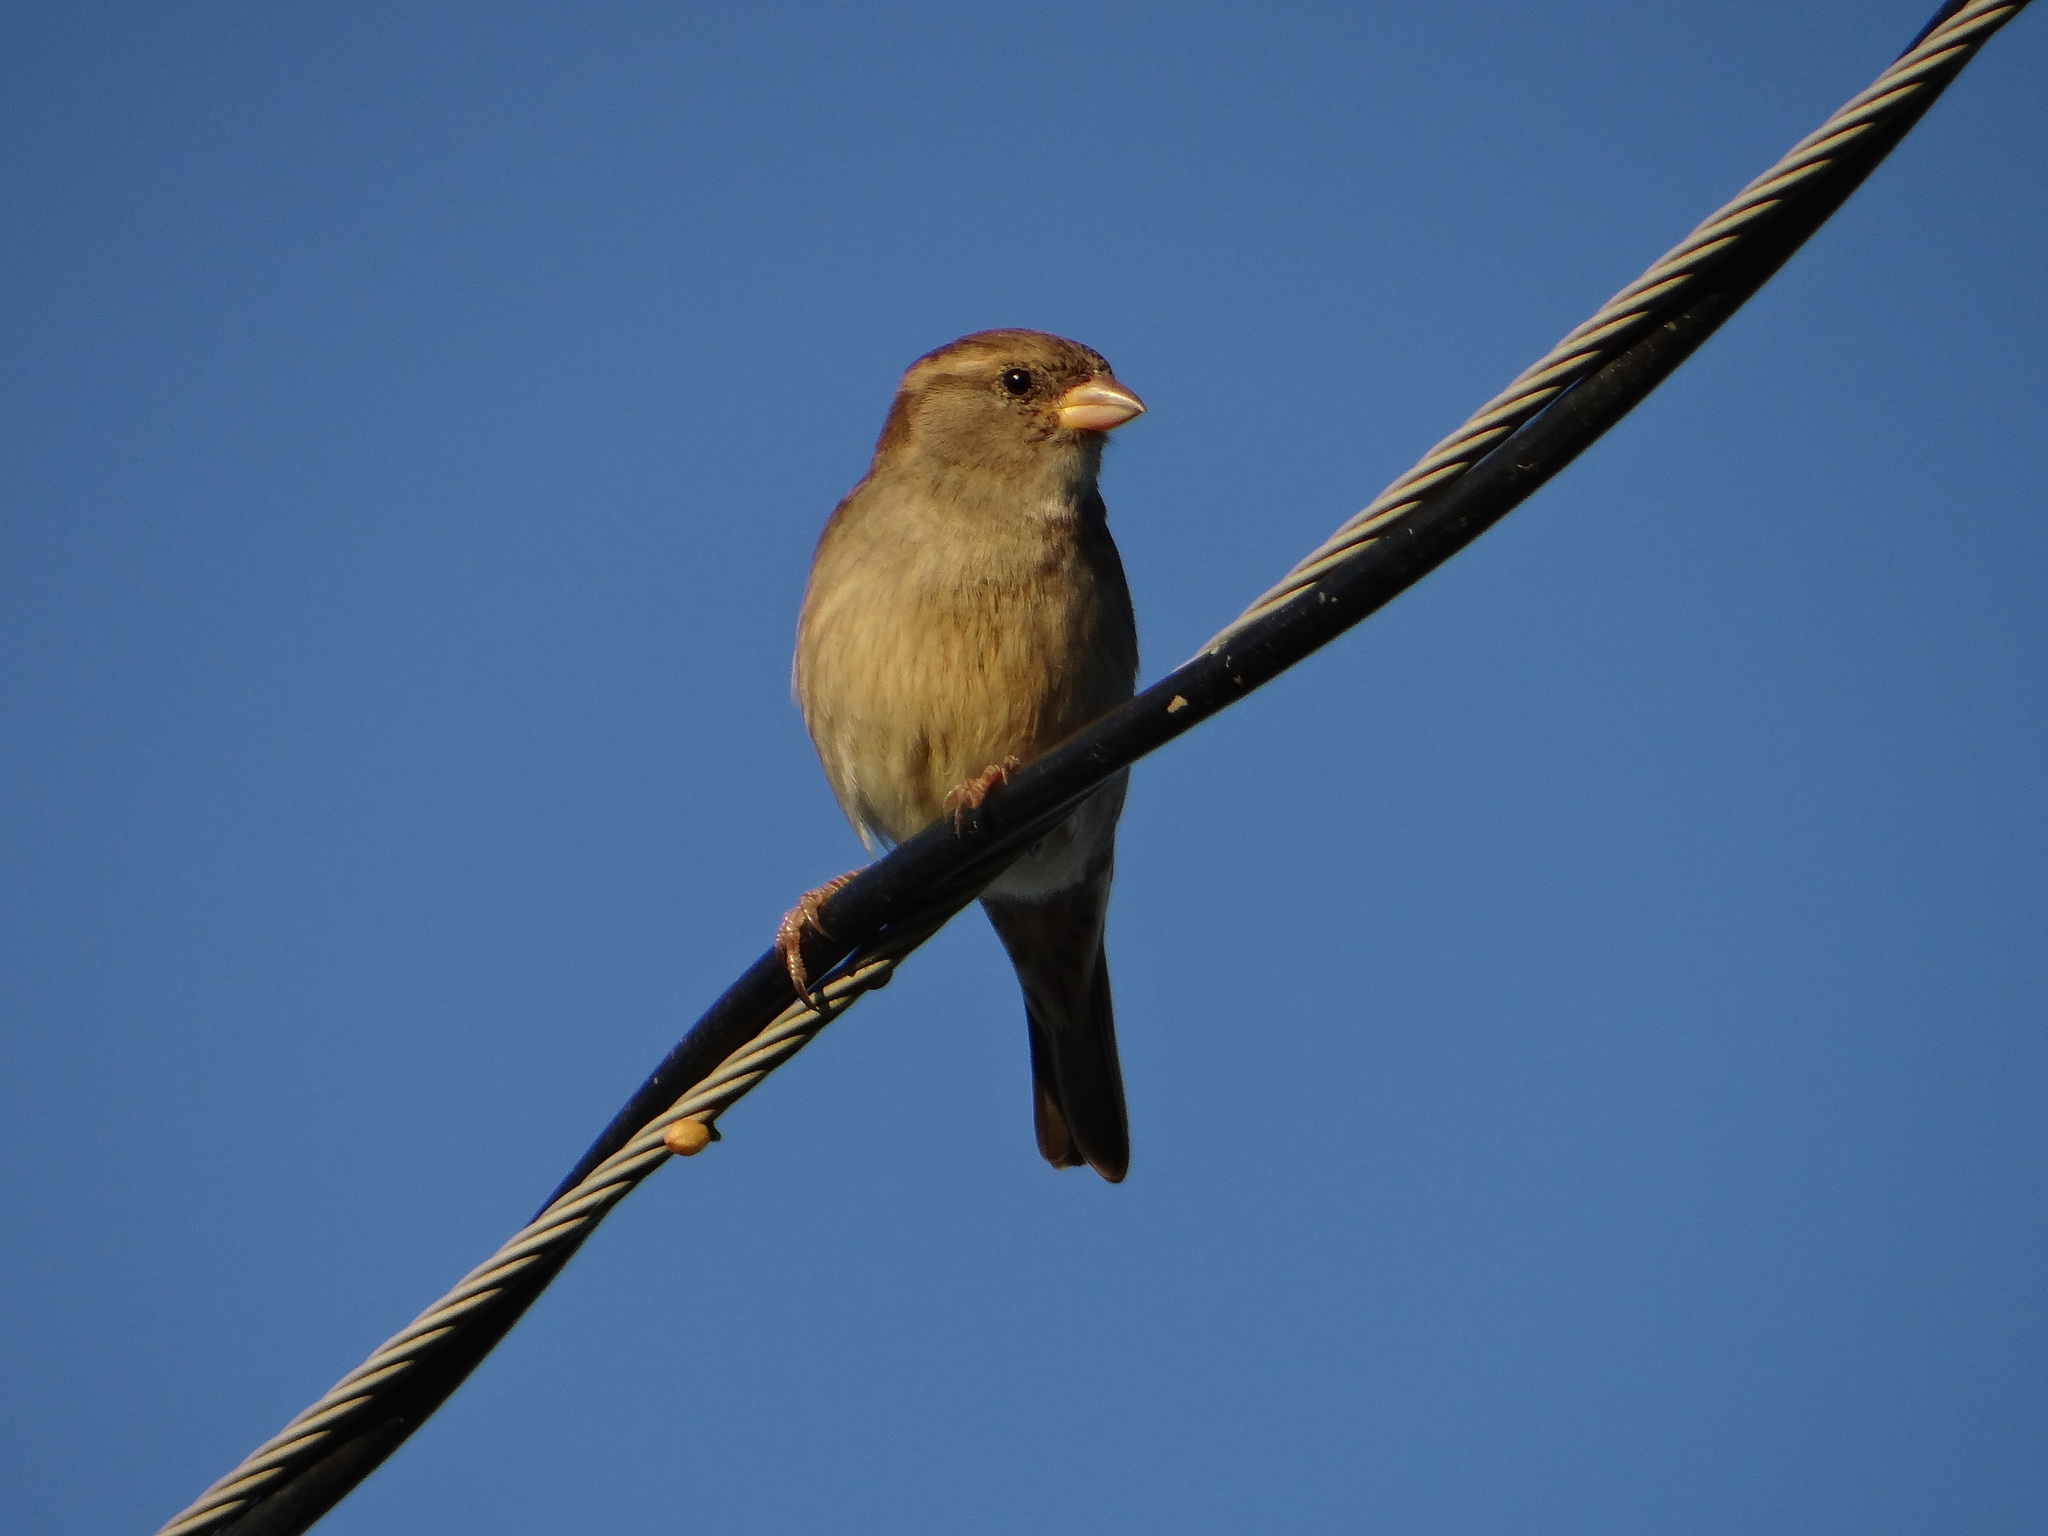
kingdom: Animalia
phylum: Chordata
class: Aves
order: Passeriformes
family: Passeridae
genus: Passer
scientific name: Passer domesticus
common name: House sparrow
